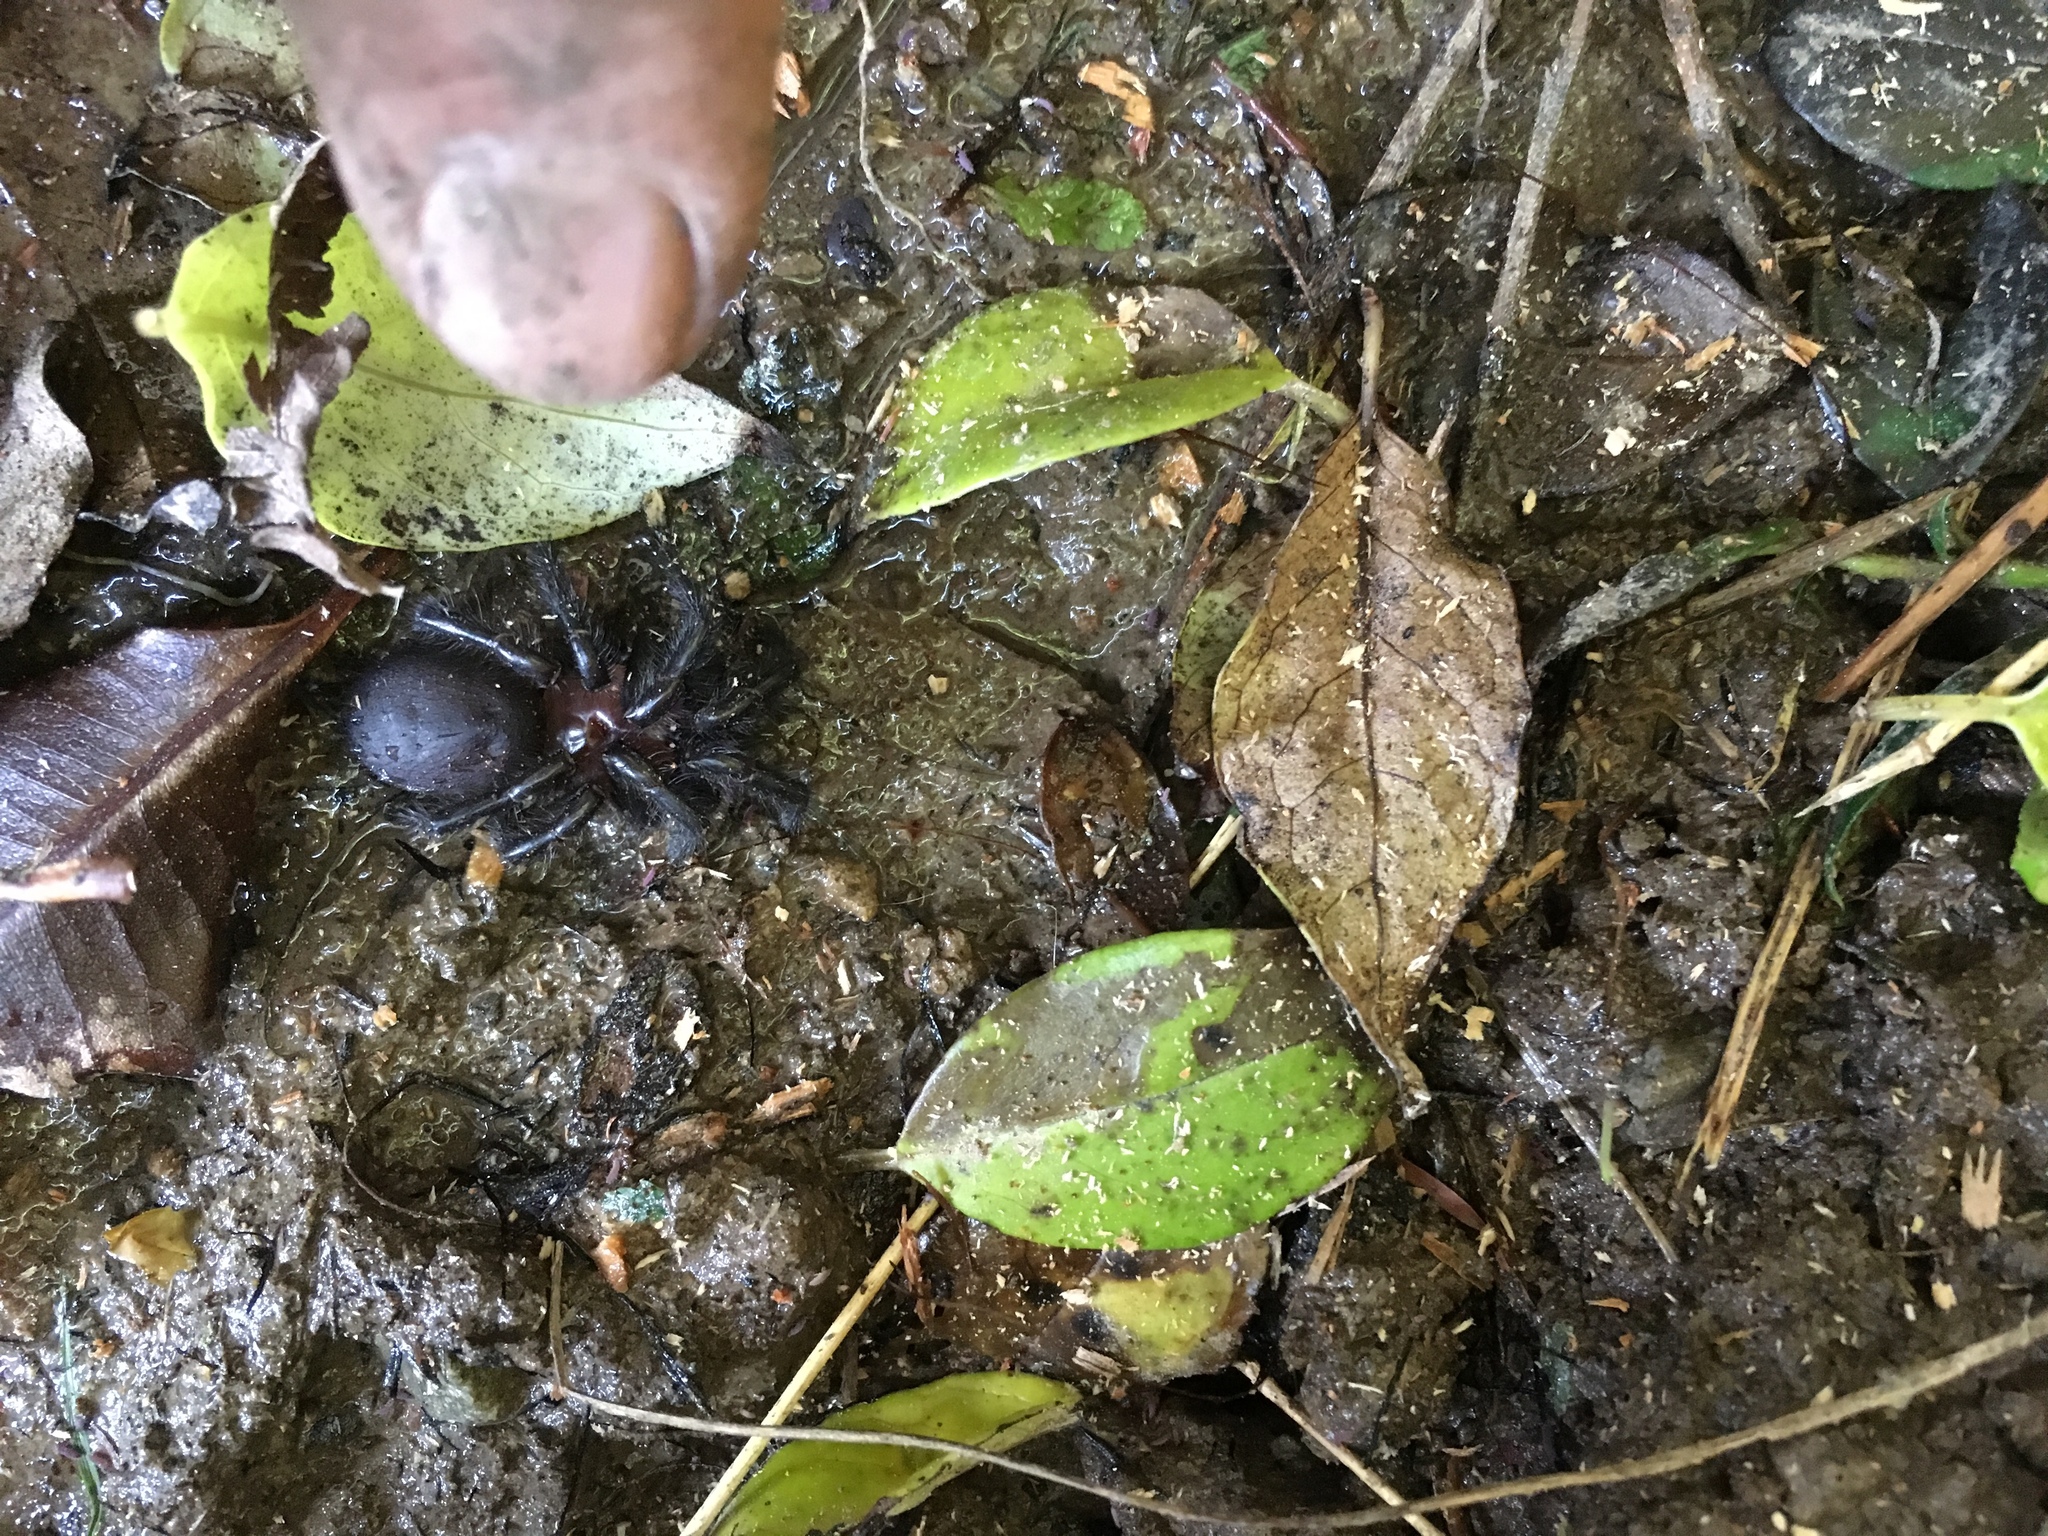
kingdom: Animalia
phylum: Arthropoda
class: Arachnida
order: Araneae
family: Porrhothelidae
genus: Porrhothele
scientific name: Porrhothele antipodiana
